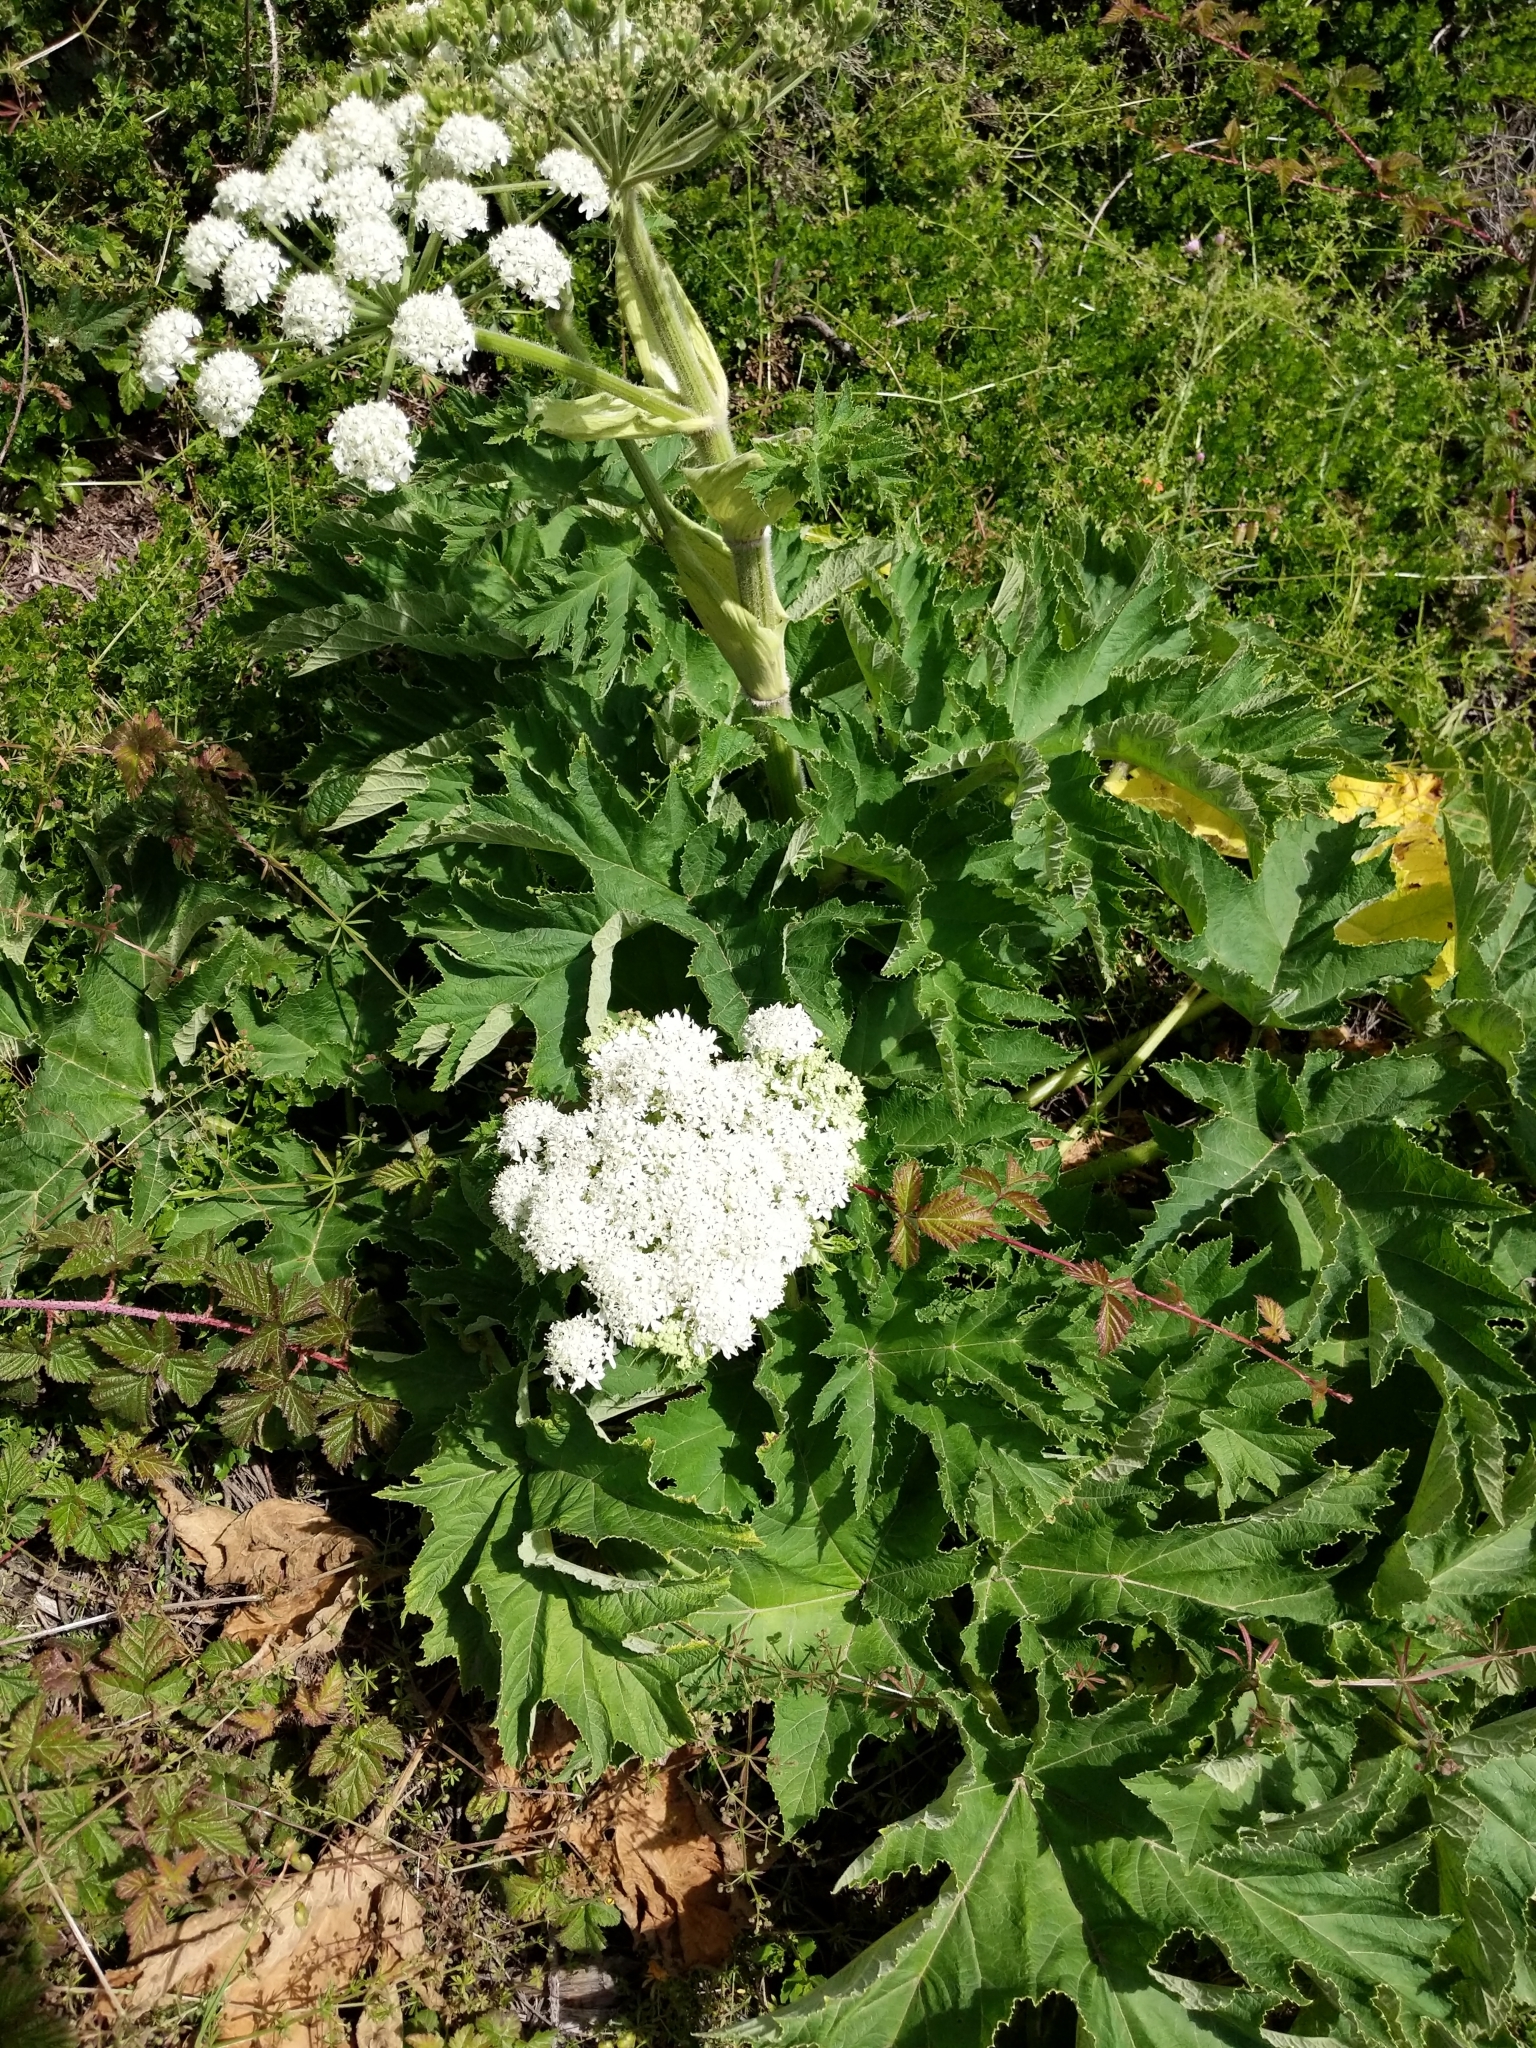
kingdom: Plantae
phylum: Tracheophyta
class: Magnoliopsida
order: Apiales
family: Apiaceae
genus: Heracleum
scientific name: Heracleum maximum
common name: American cow parsnip
